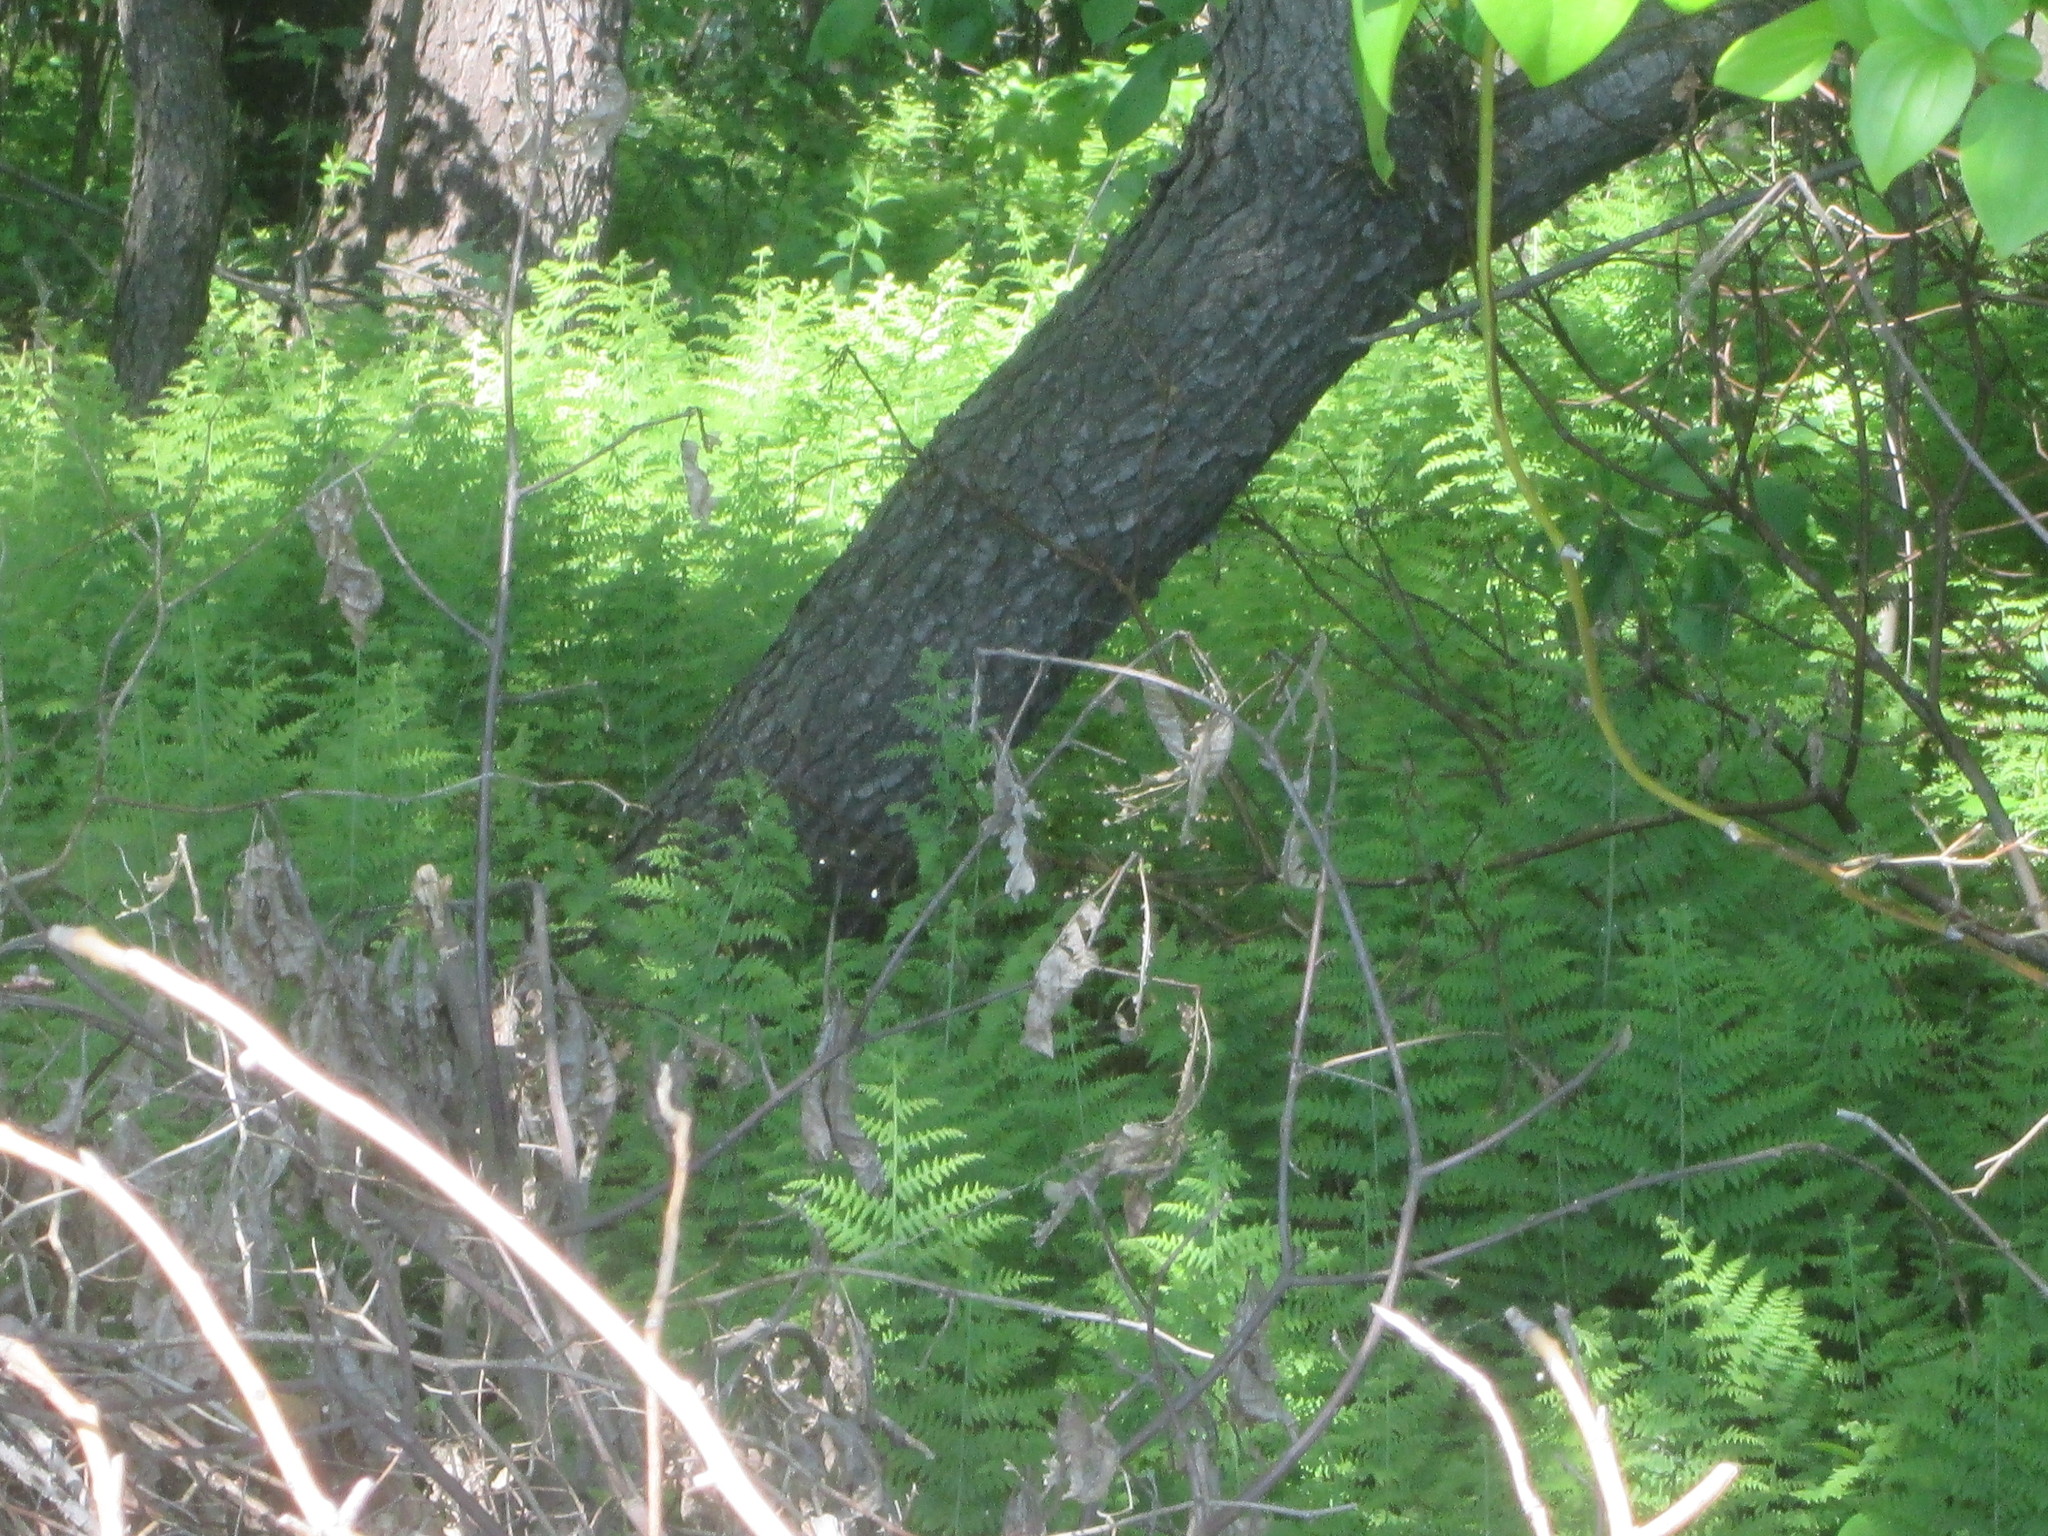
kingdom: Plantae
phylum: Tracheophyta
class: Polypodiopsida
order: Polypodiales
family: Dennstaedtiaceae
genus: Sitobolium
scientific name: Sitobolium punctilobum
